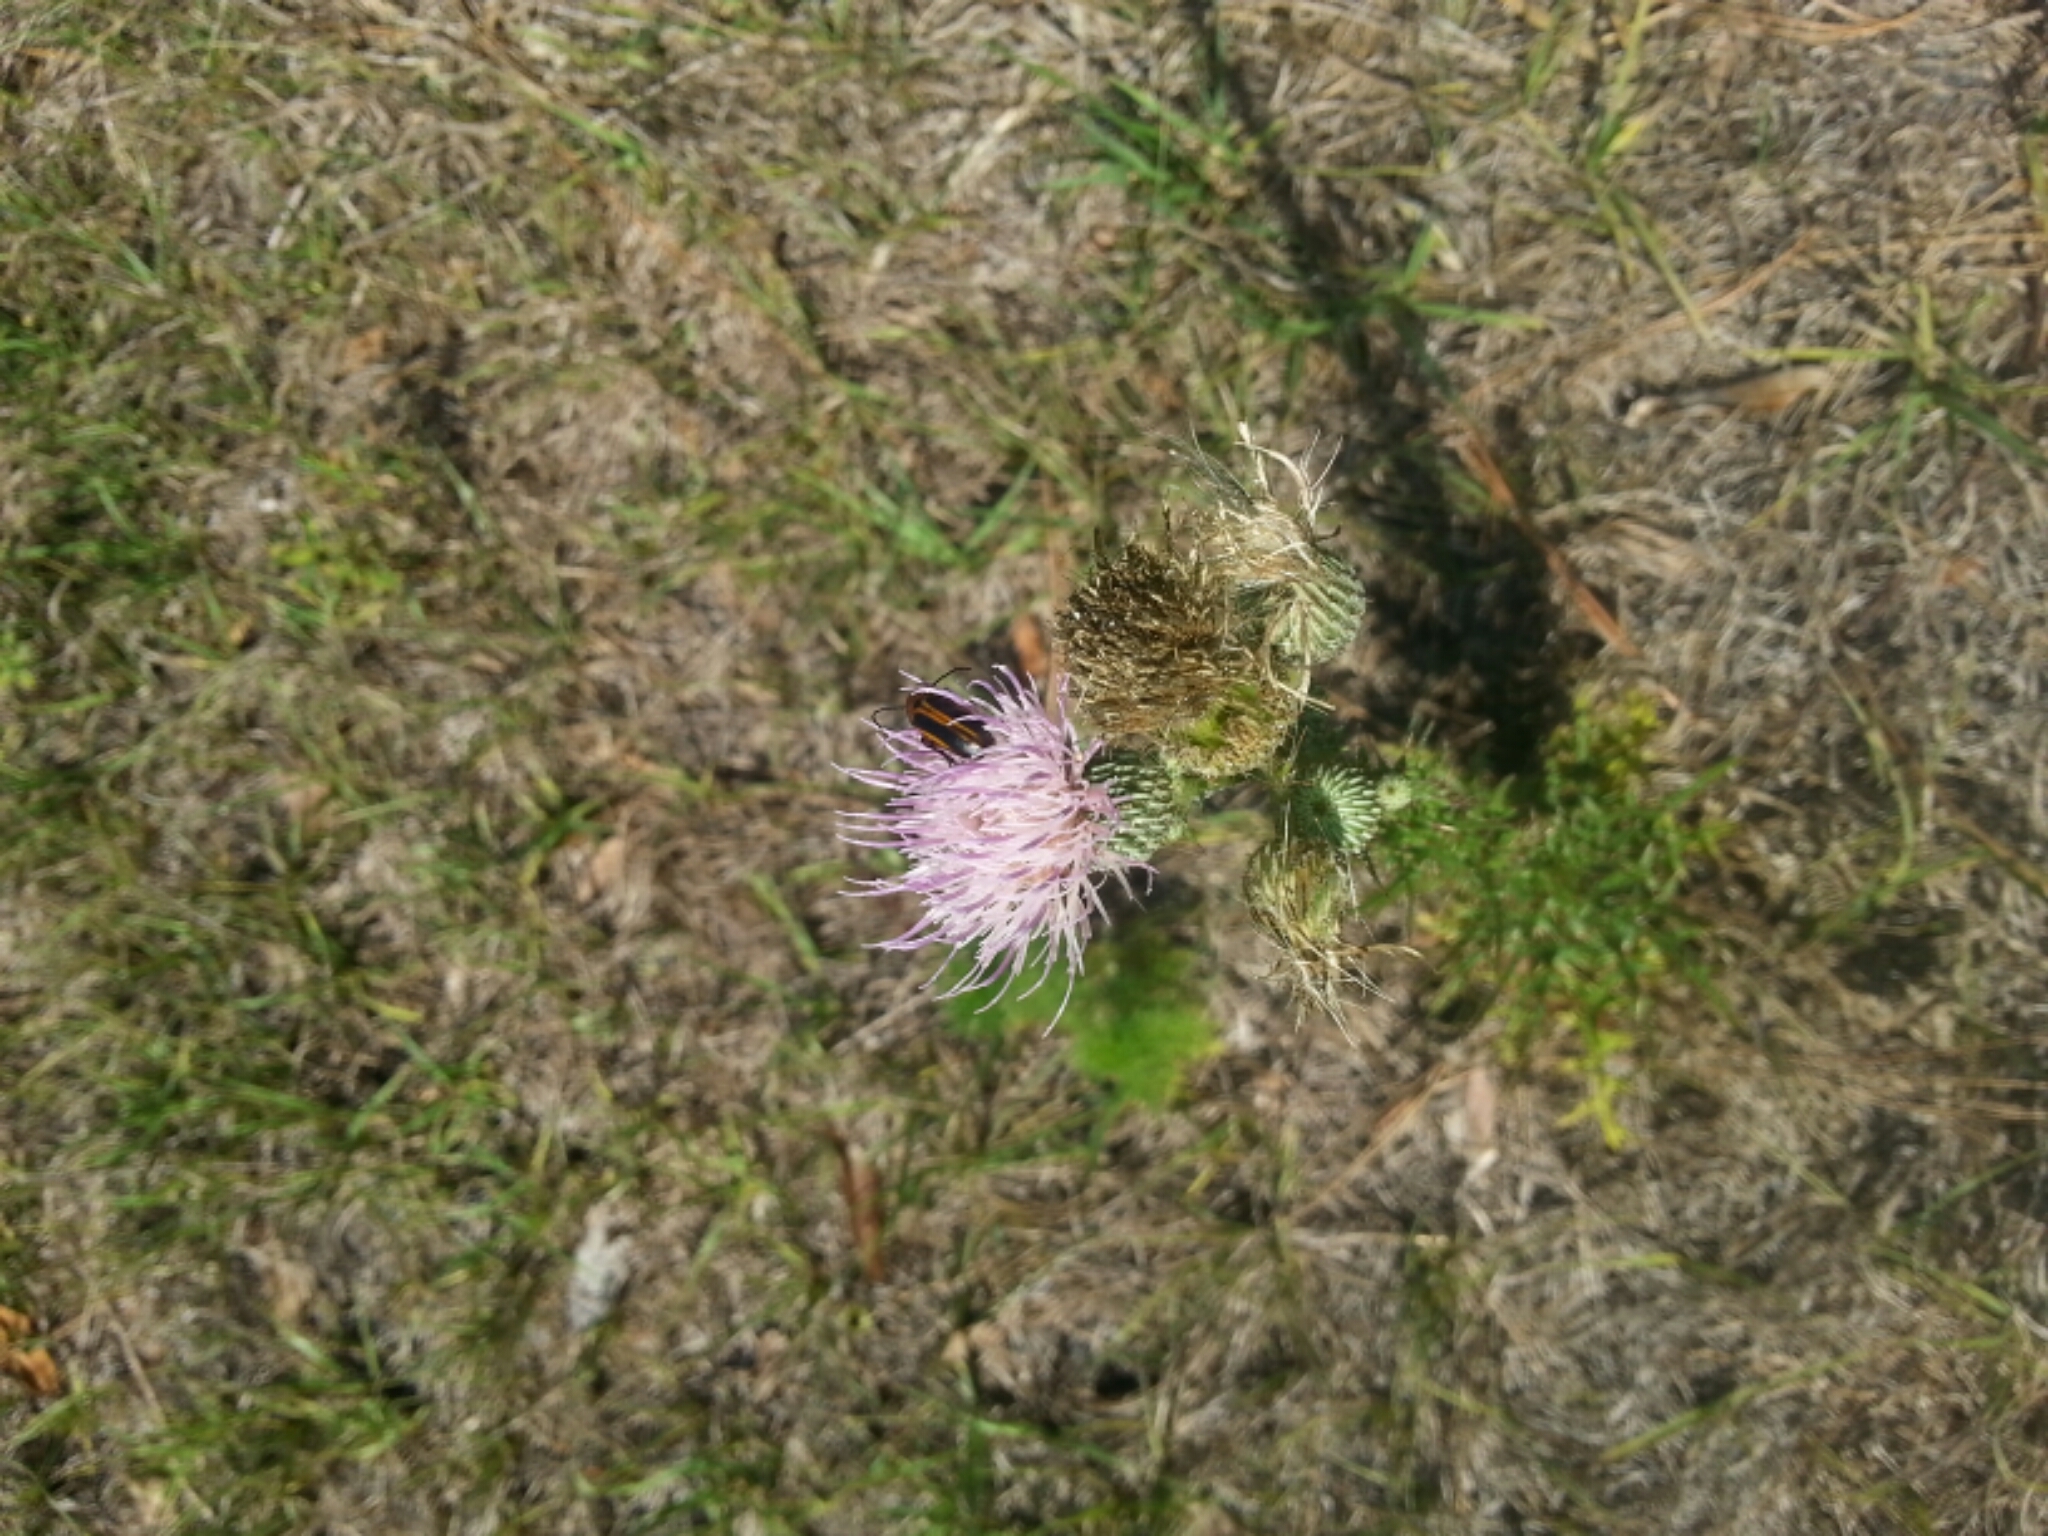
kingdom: Plantae
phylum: Tracheophyta
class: Magnoliopsida
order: Asterales
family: Asteraceae
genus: Cirsium
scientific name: Cirsium nuttalii
